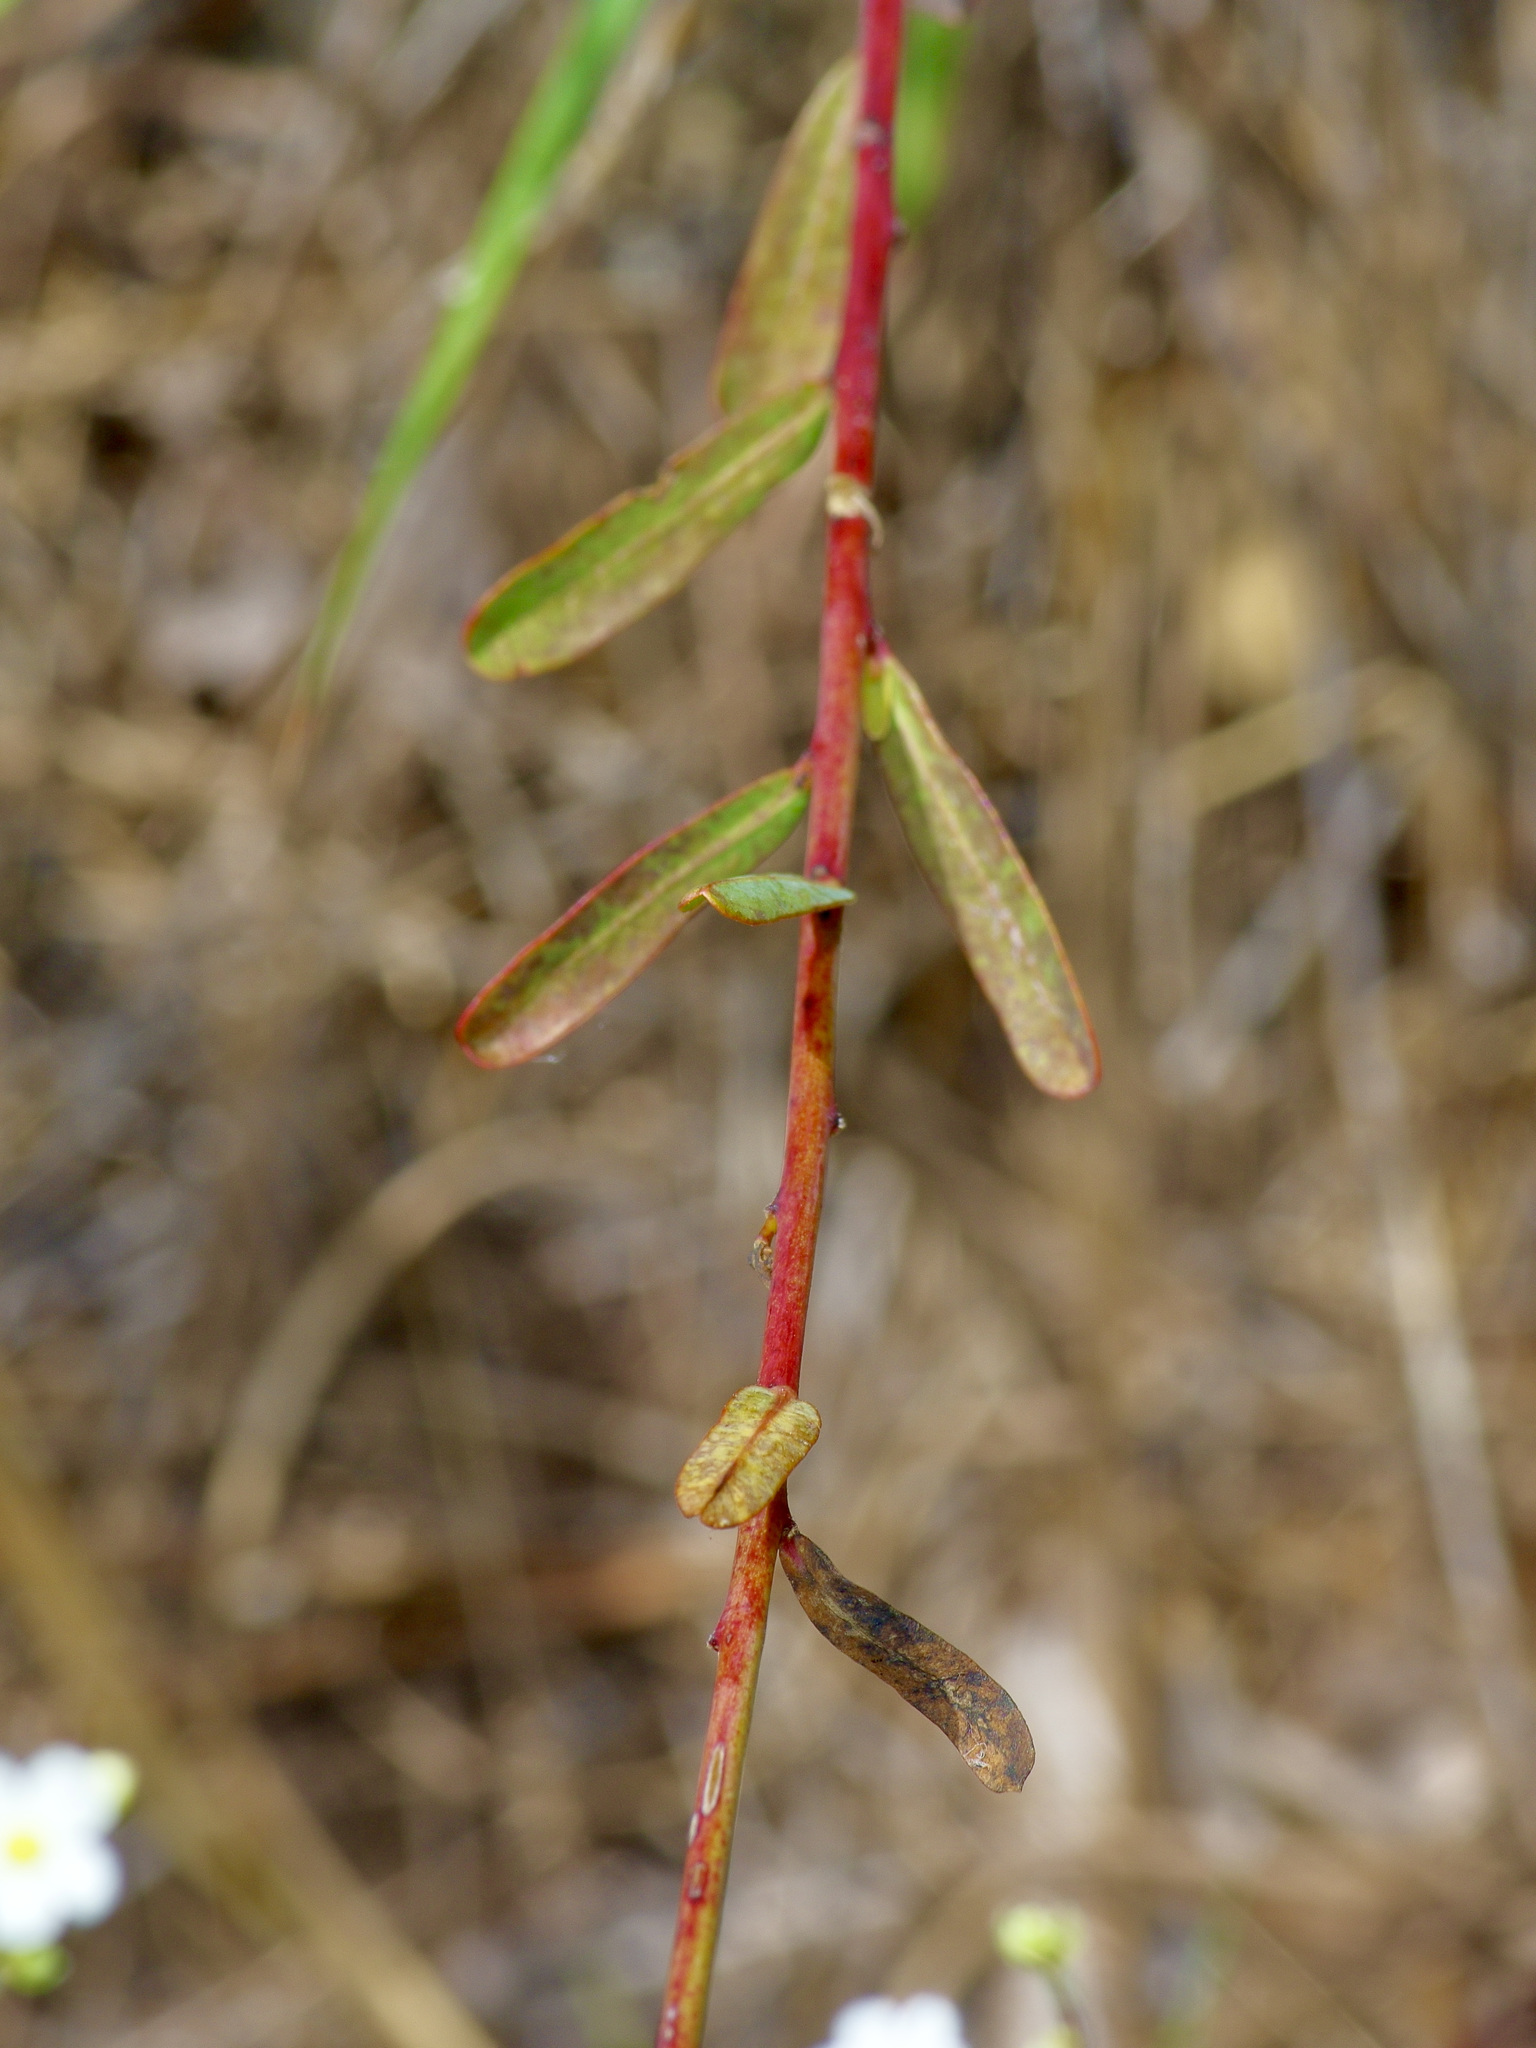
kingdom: Plantae
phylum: Tracheophyta
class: Magnoliopsida
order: Malpighiales
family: Euphorbiaceae
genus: Euphorbia
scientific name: Euphorbia corollata
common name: Flowering spurge
